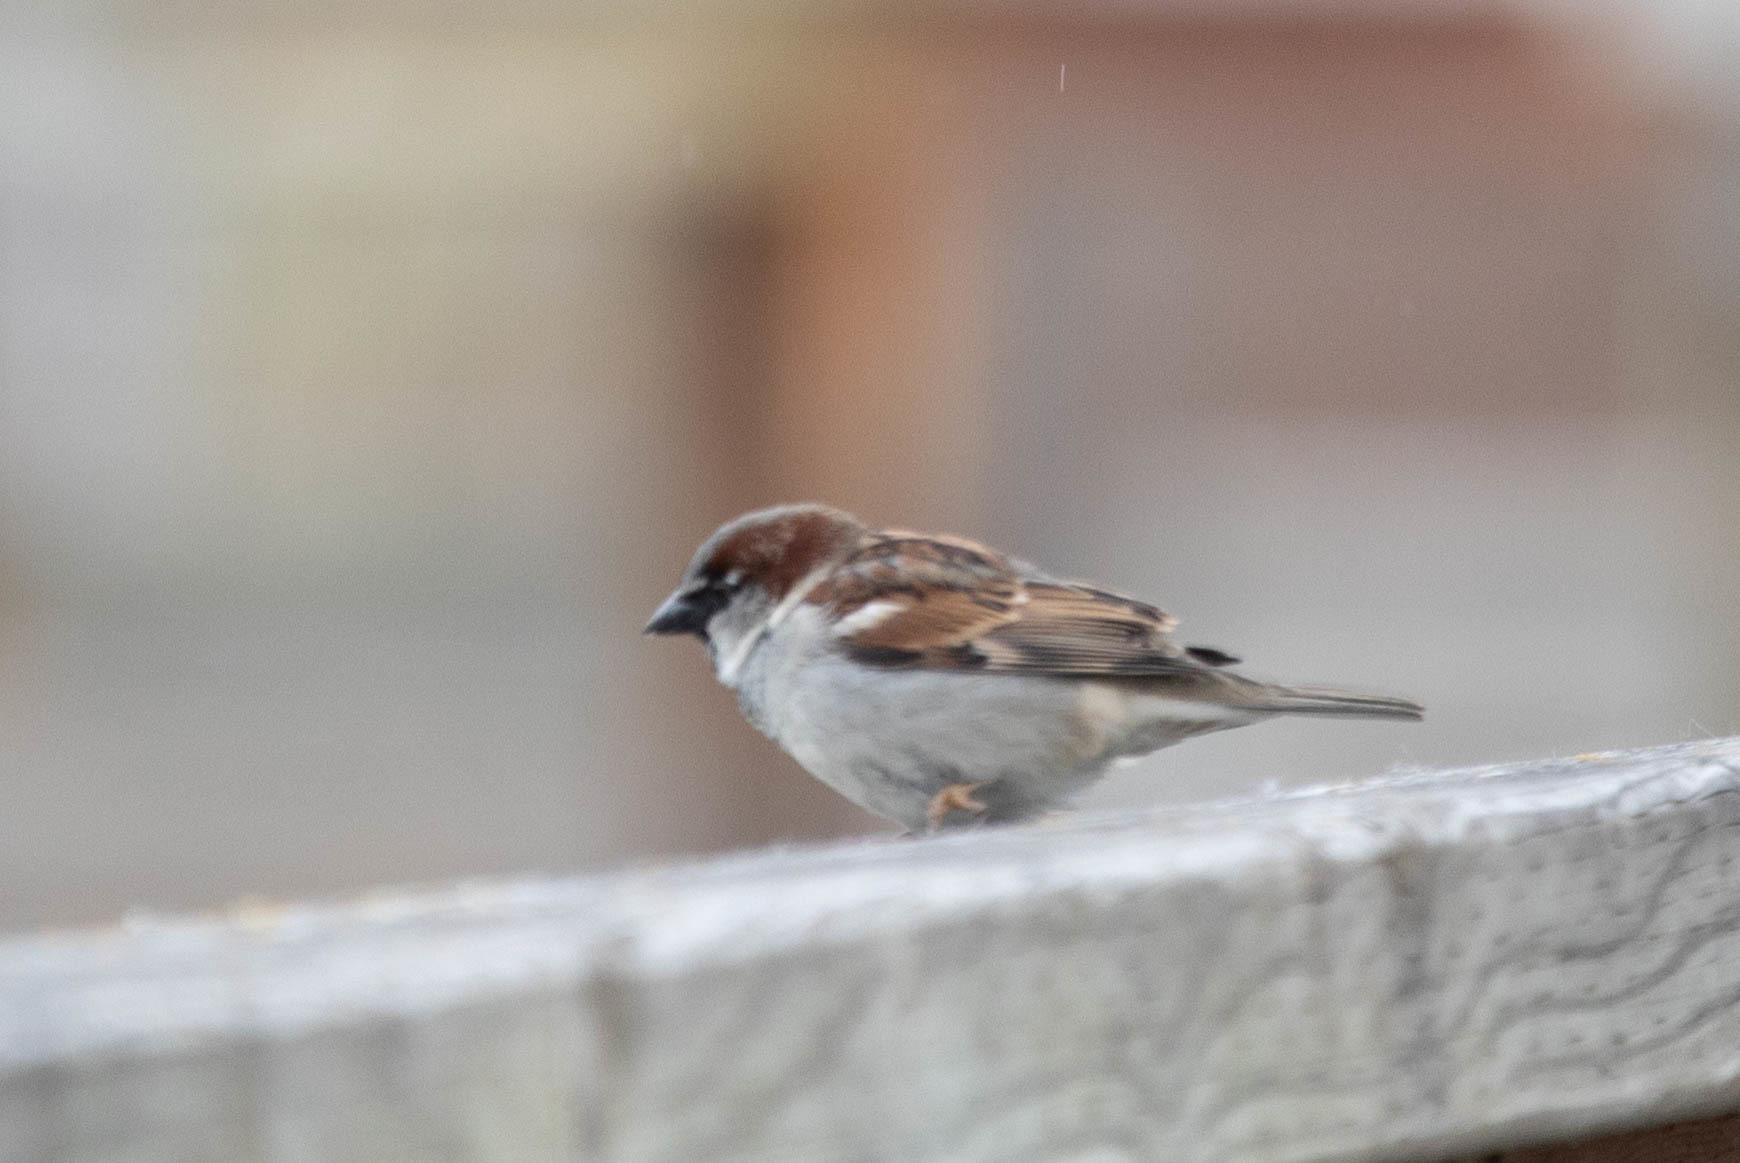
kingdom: Animalia
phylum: Chordata
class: Aves
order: Passeriformes
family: Passeridae
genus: Passer
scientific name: Passer domesticus
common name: House sparrow
